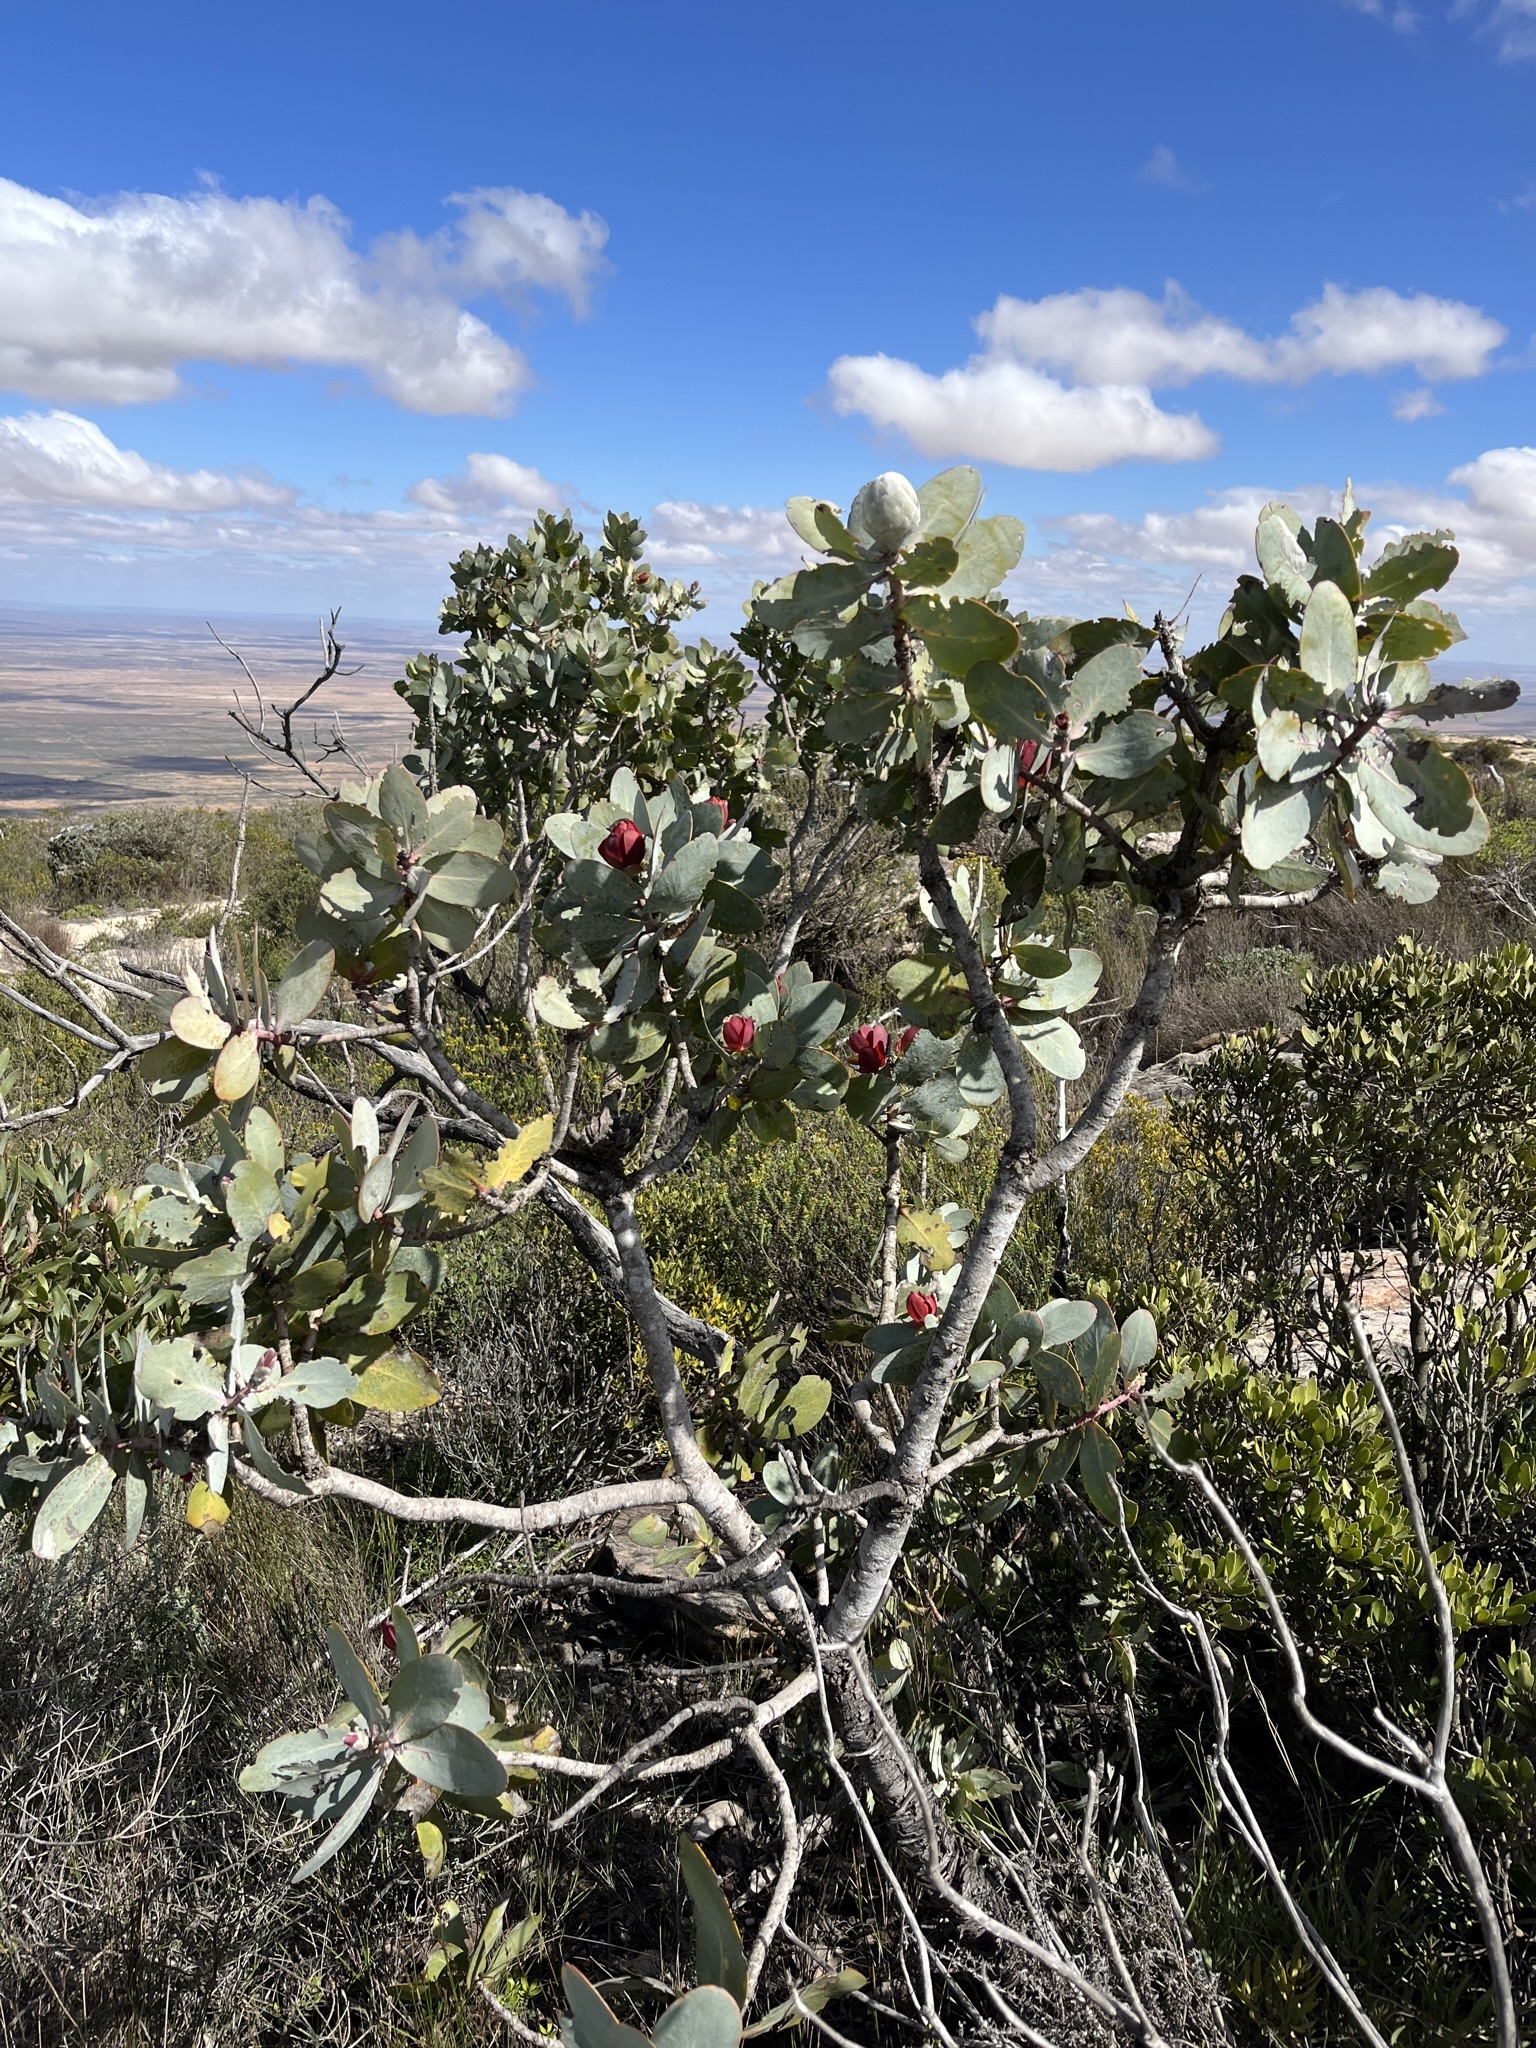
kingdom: Plantae
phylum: Tracheophyta
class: Magnoliopsida
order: Proteales
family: Proteaceae
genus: Protea
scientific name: Protea nitida
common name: Tree protea
